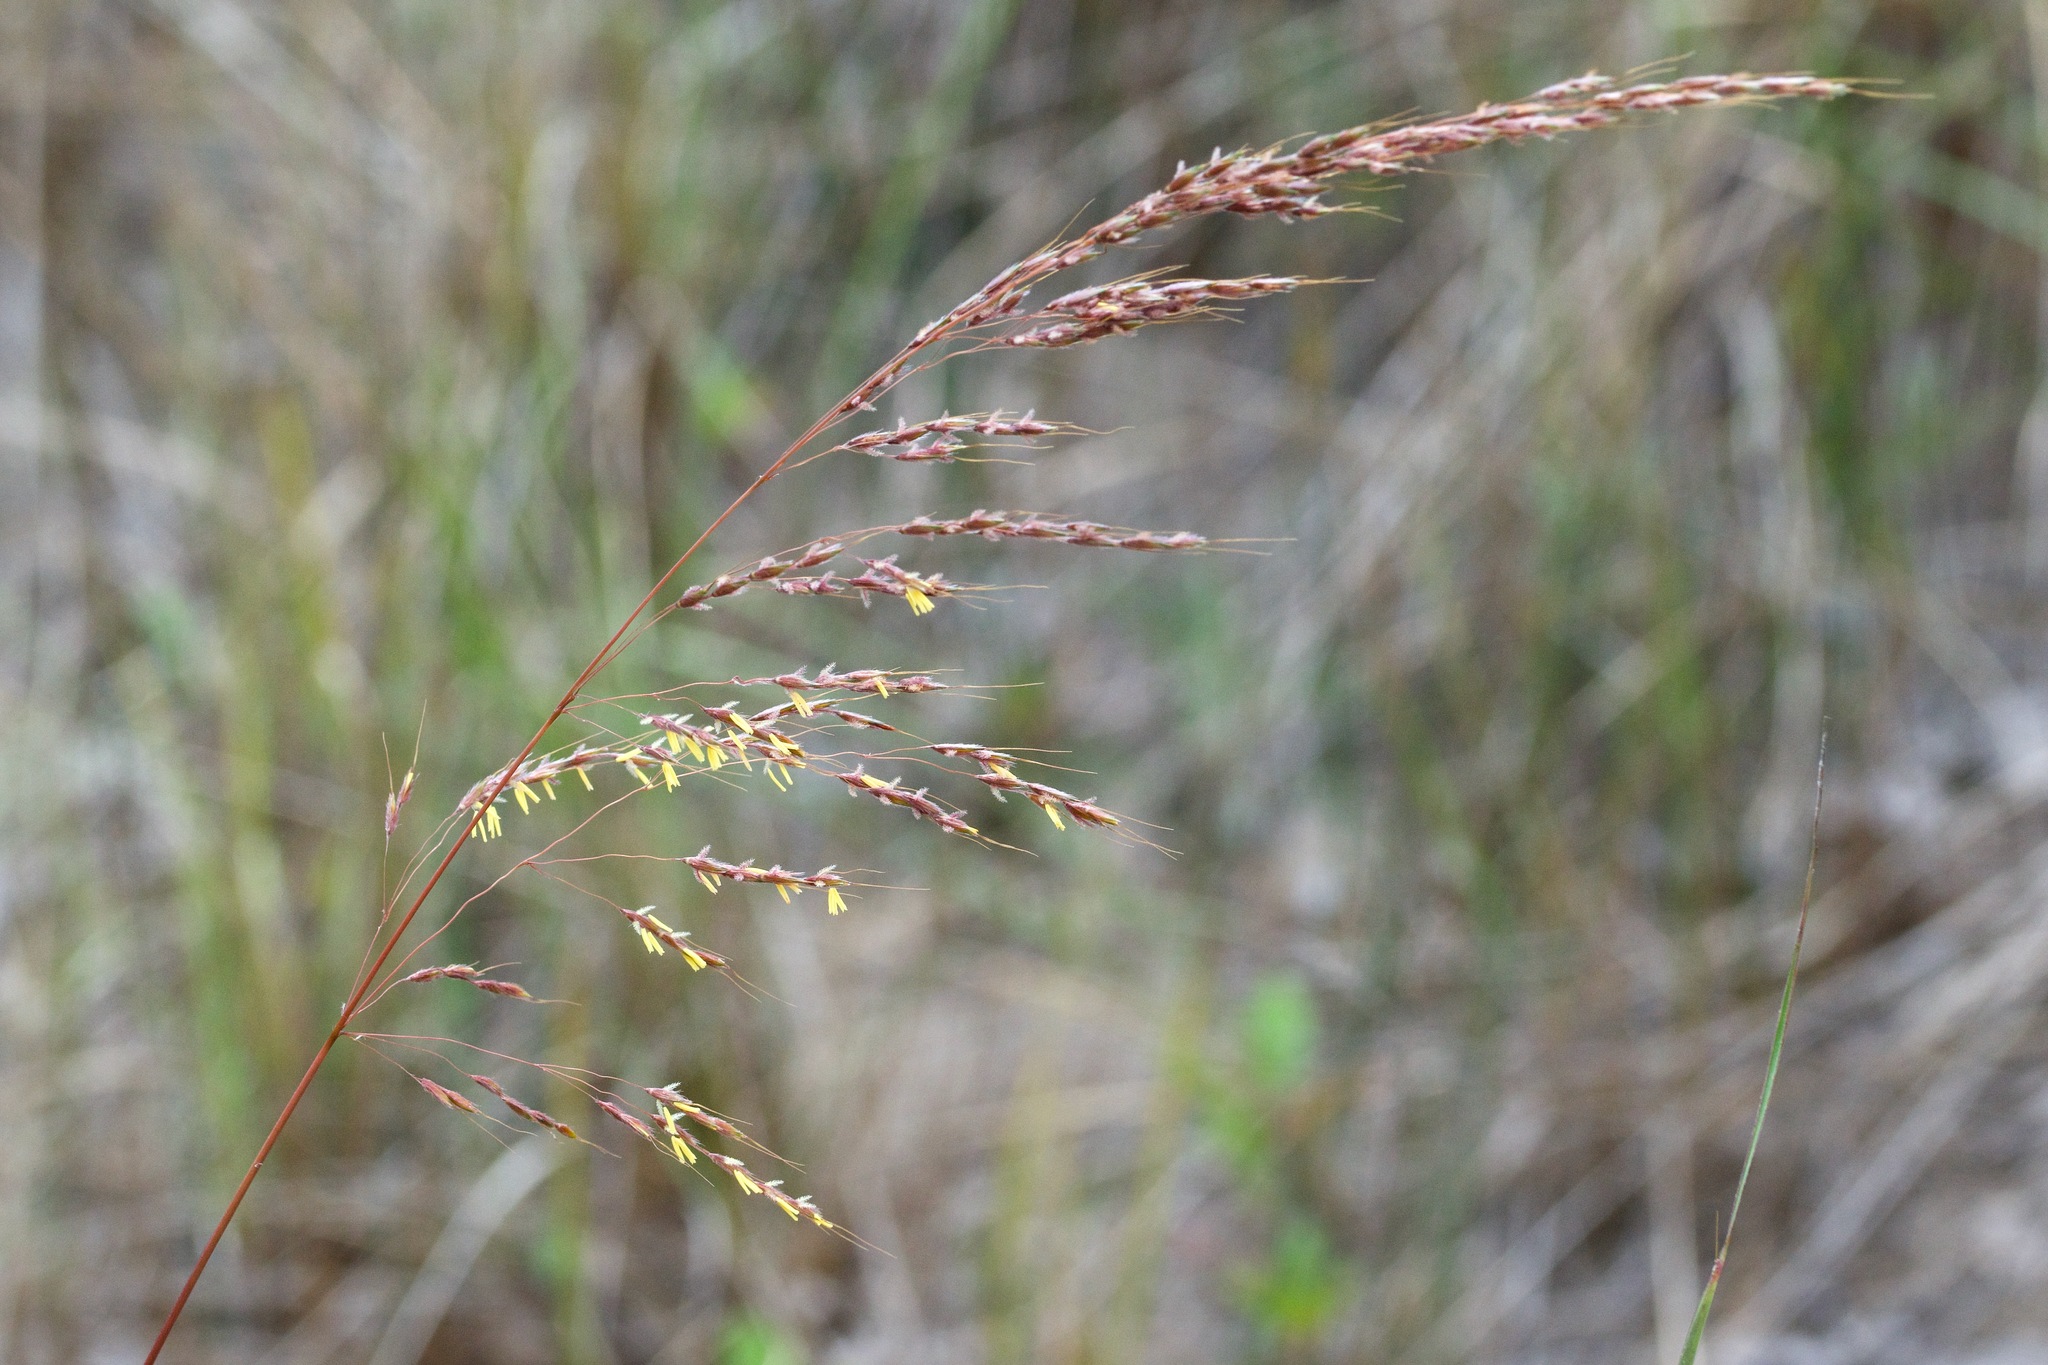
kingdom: Plantae
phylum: Tracheophyta
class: Liliopsida
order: Poales
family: Poaceae
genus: Sorghastrum
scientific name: Sorghastrum nutans
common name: Indian grass
